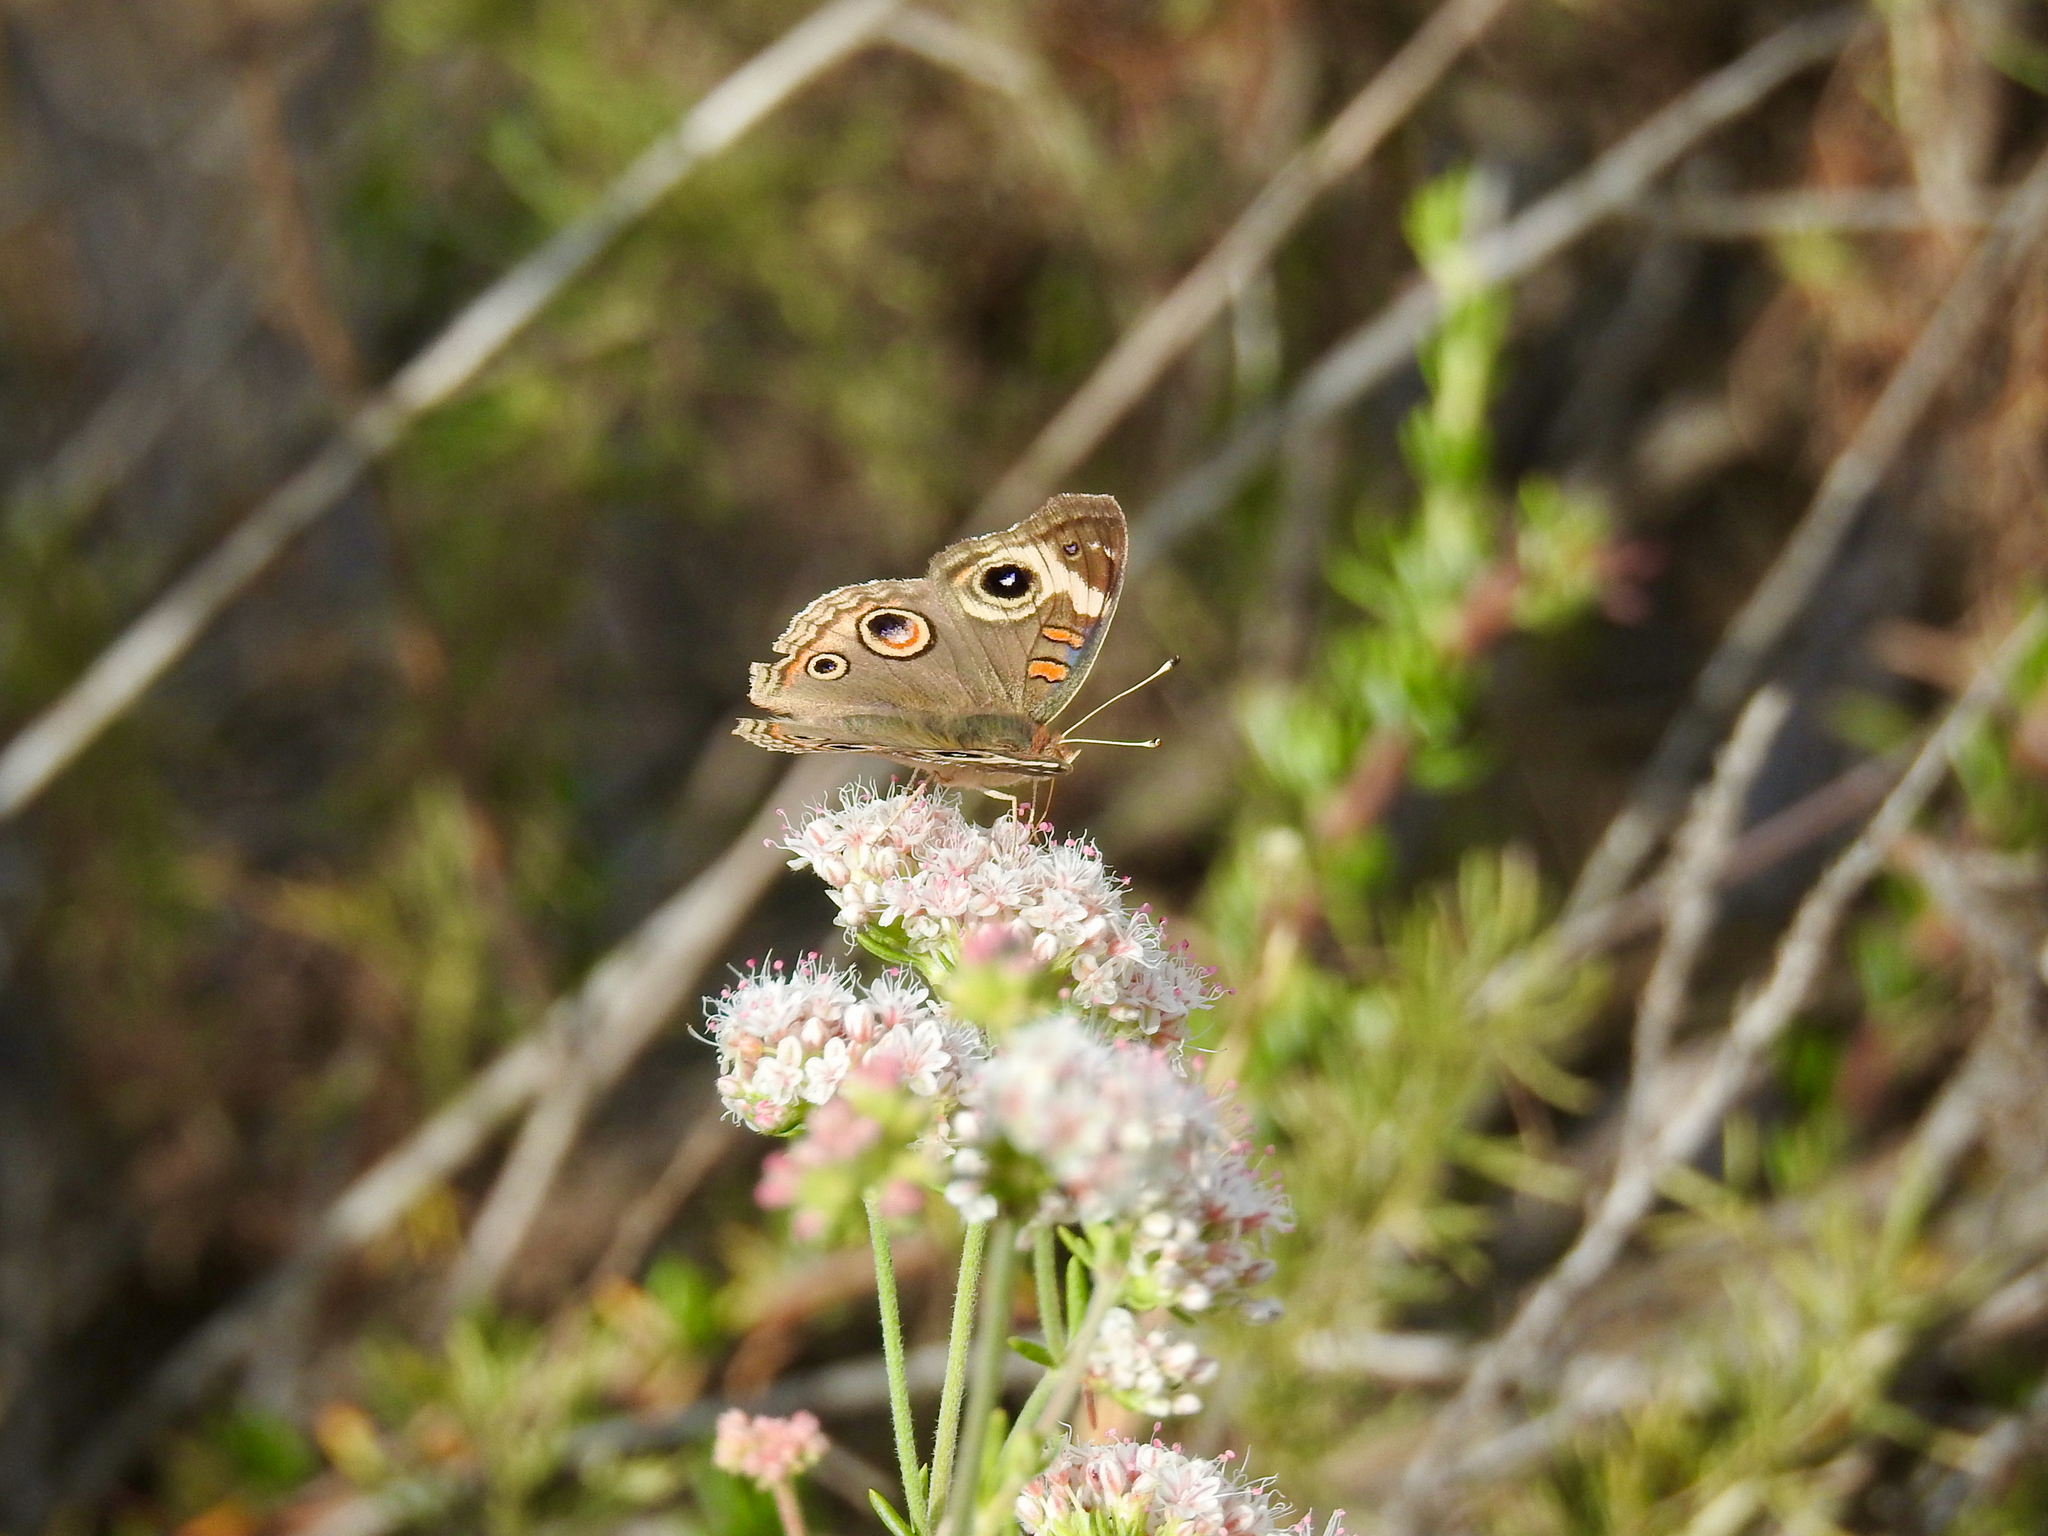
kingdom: Animalia
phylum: Arthropoda
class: Insecta
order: Lepidoptera
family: Nymphalidae
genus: Junonia
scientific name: Junonia grisea
